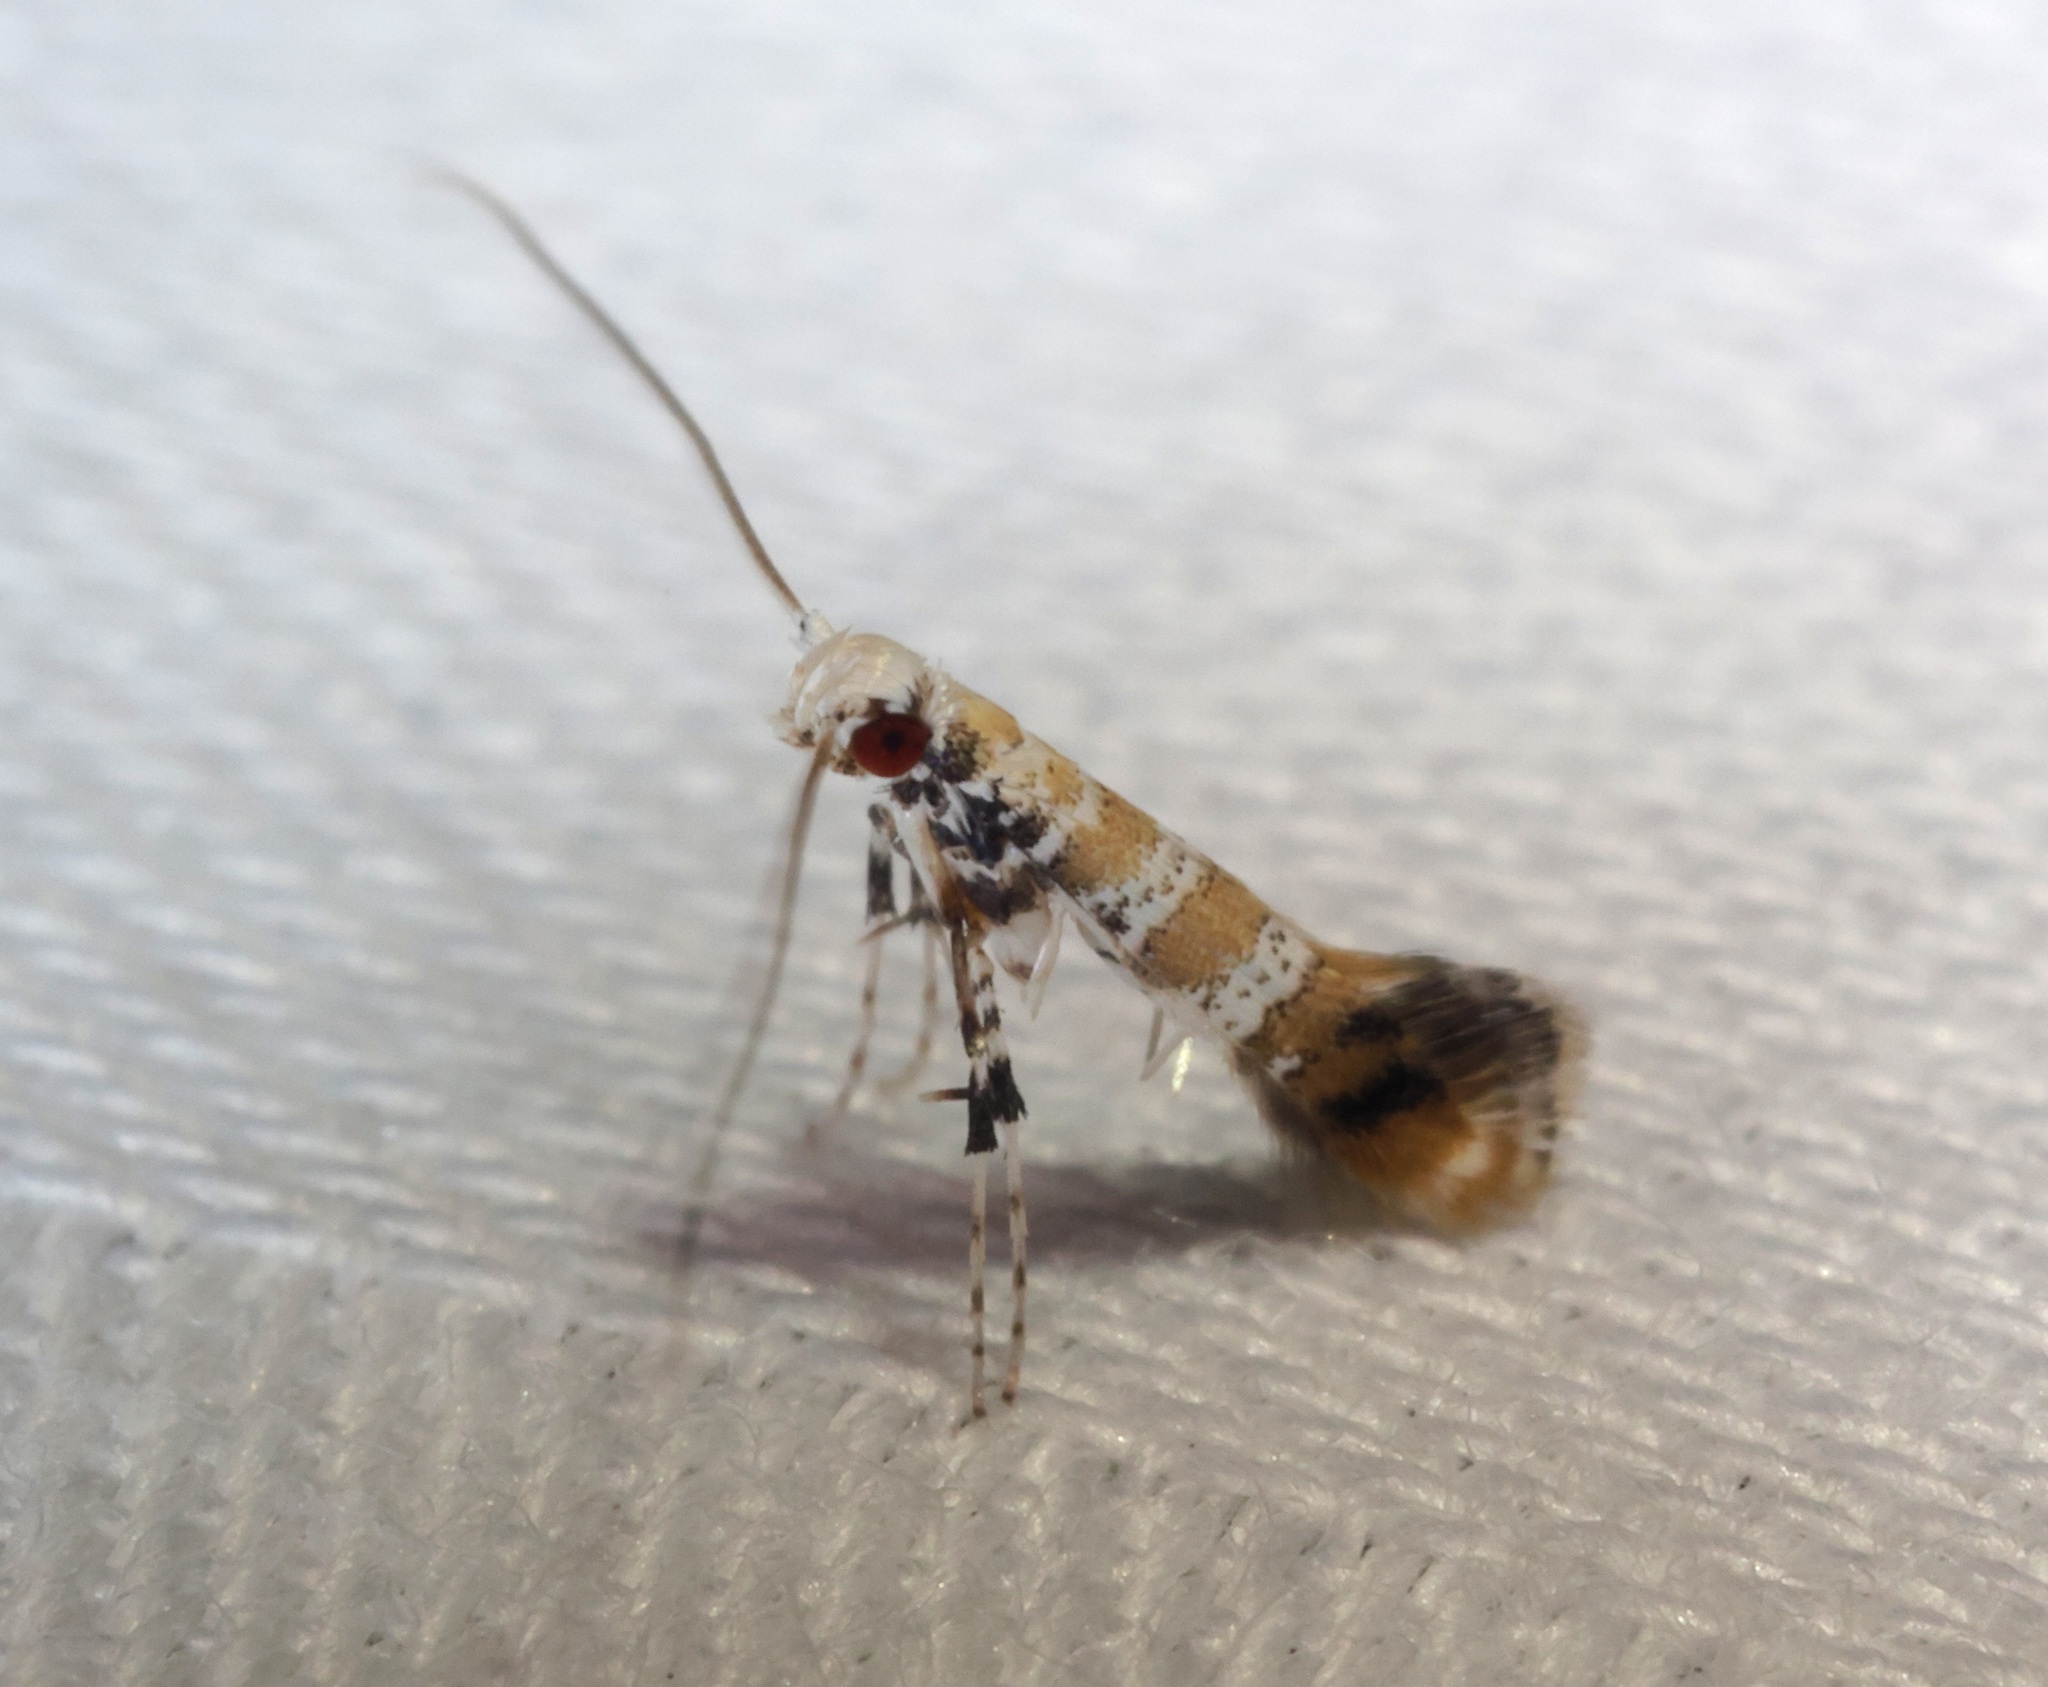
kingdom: Animalia
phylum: Arthropoda
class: Insecta
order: Lepidoptera
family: Gracillariidae
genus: Gibbovalva
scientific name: Gibbovalva singularis
